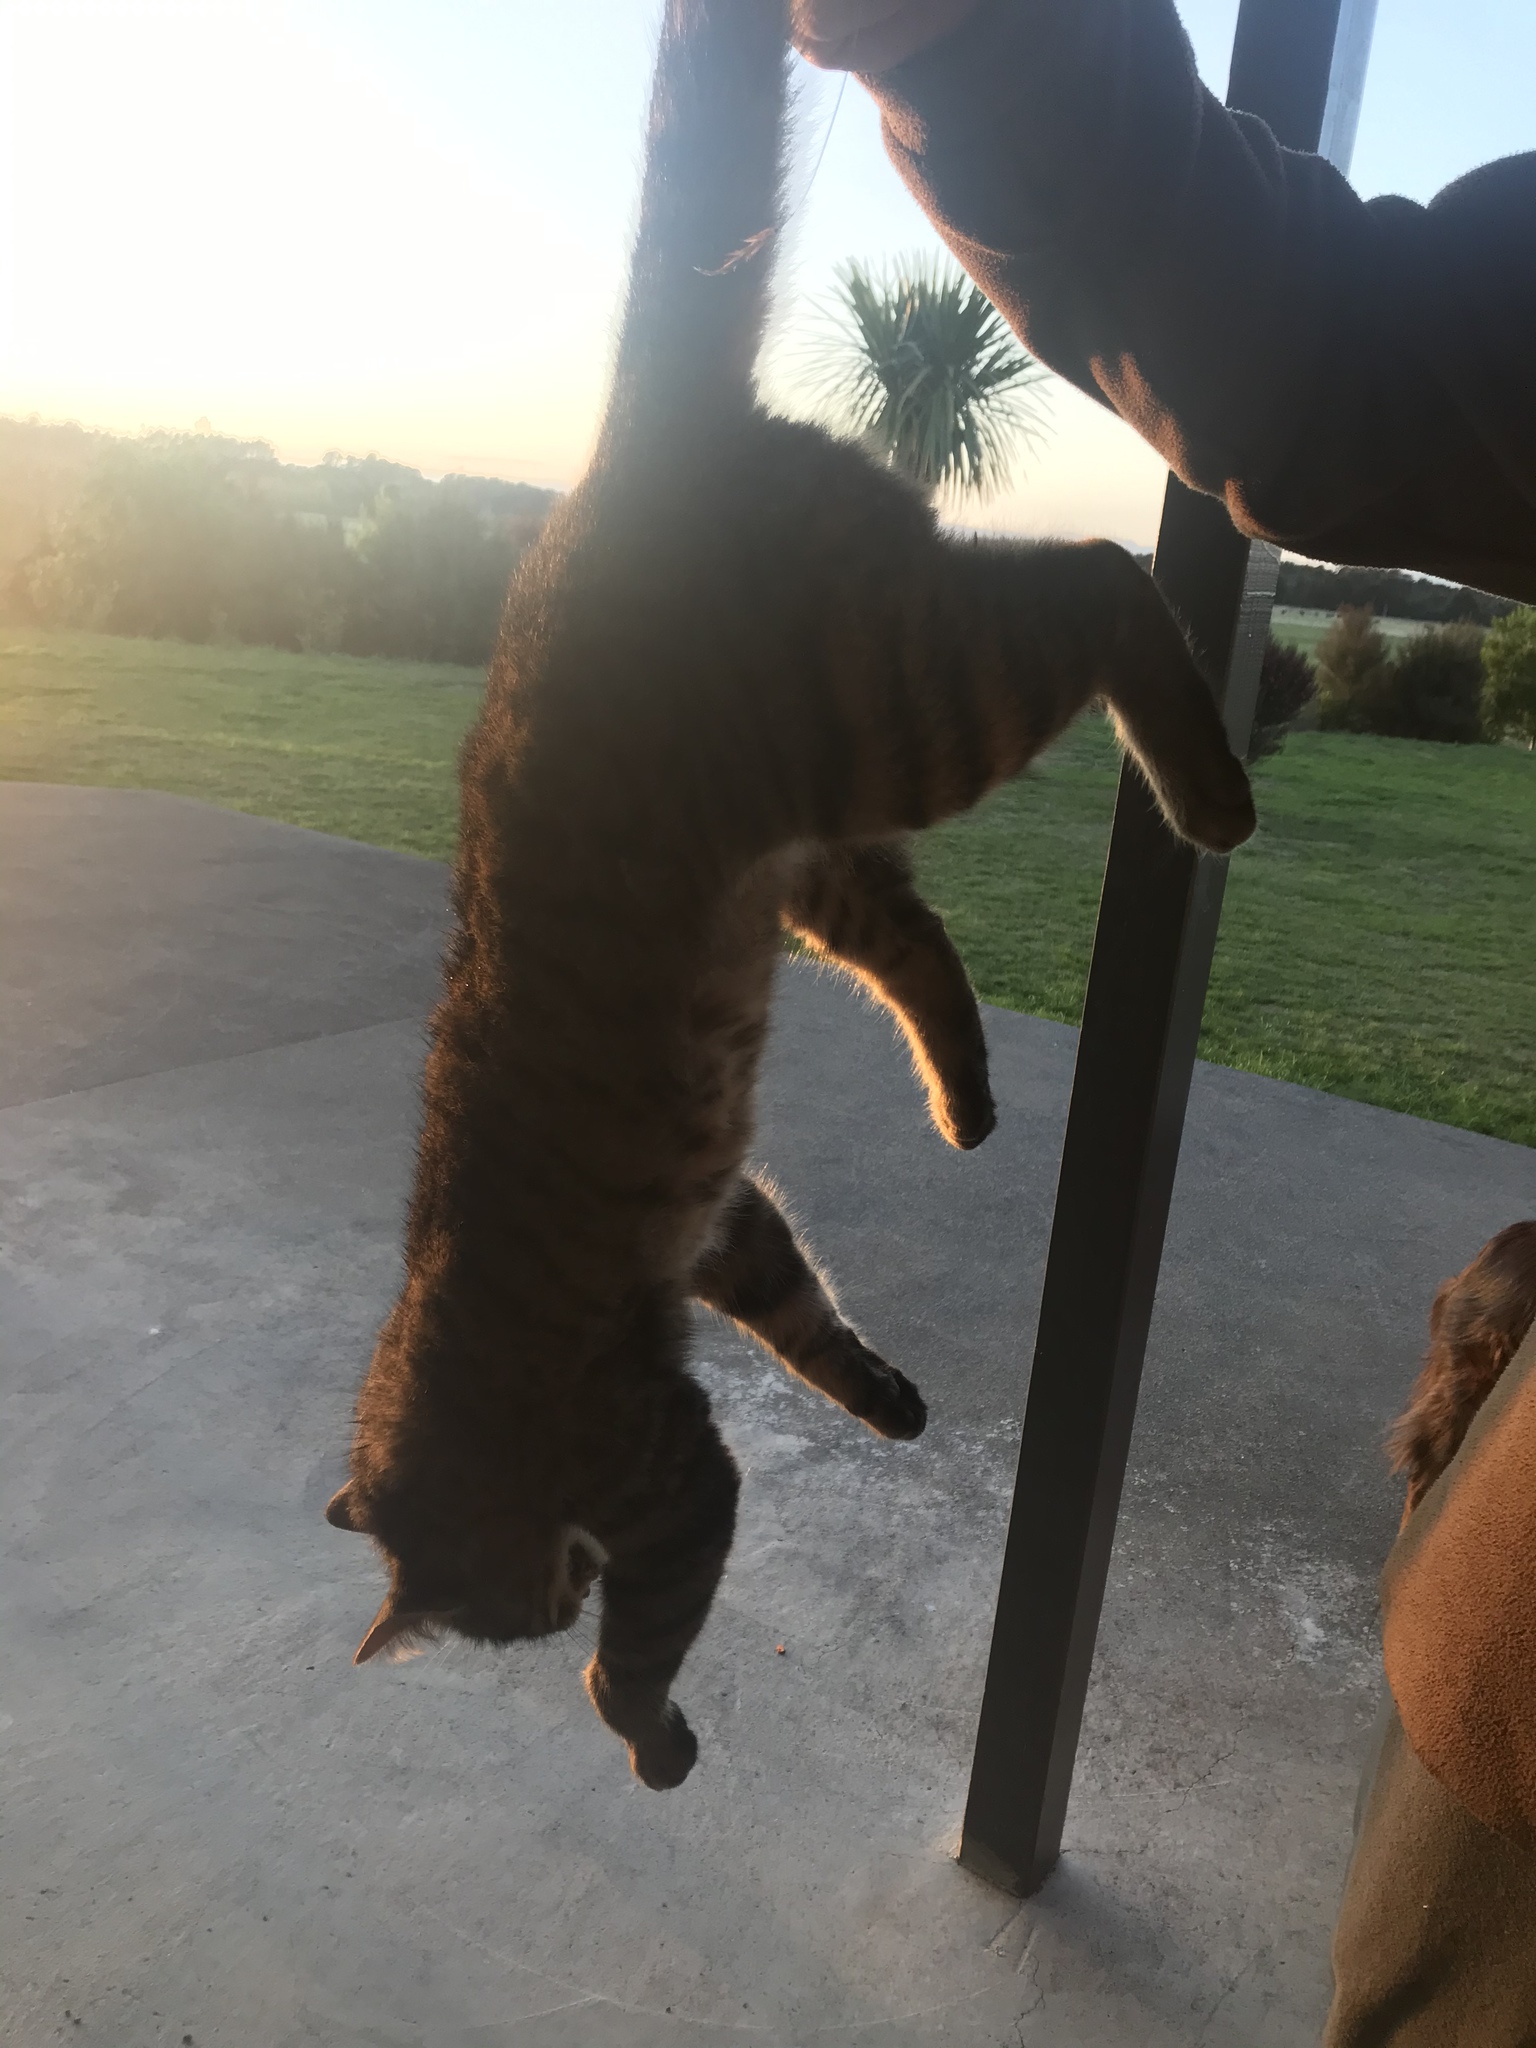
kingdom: Animalia
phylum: Chordata
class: Mammalia
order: Carnivora
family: Felidae
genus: Felis
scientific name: Felis catus
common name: Domestic cat
